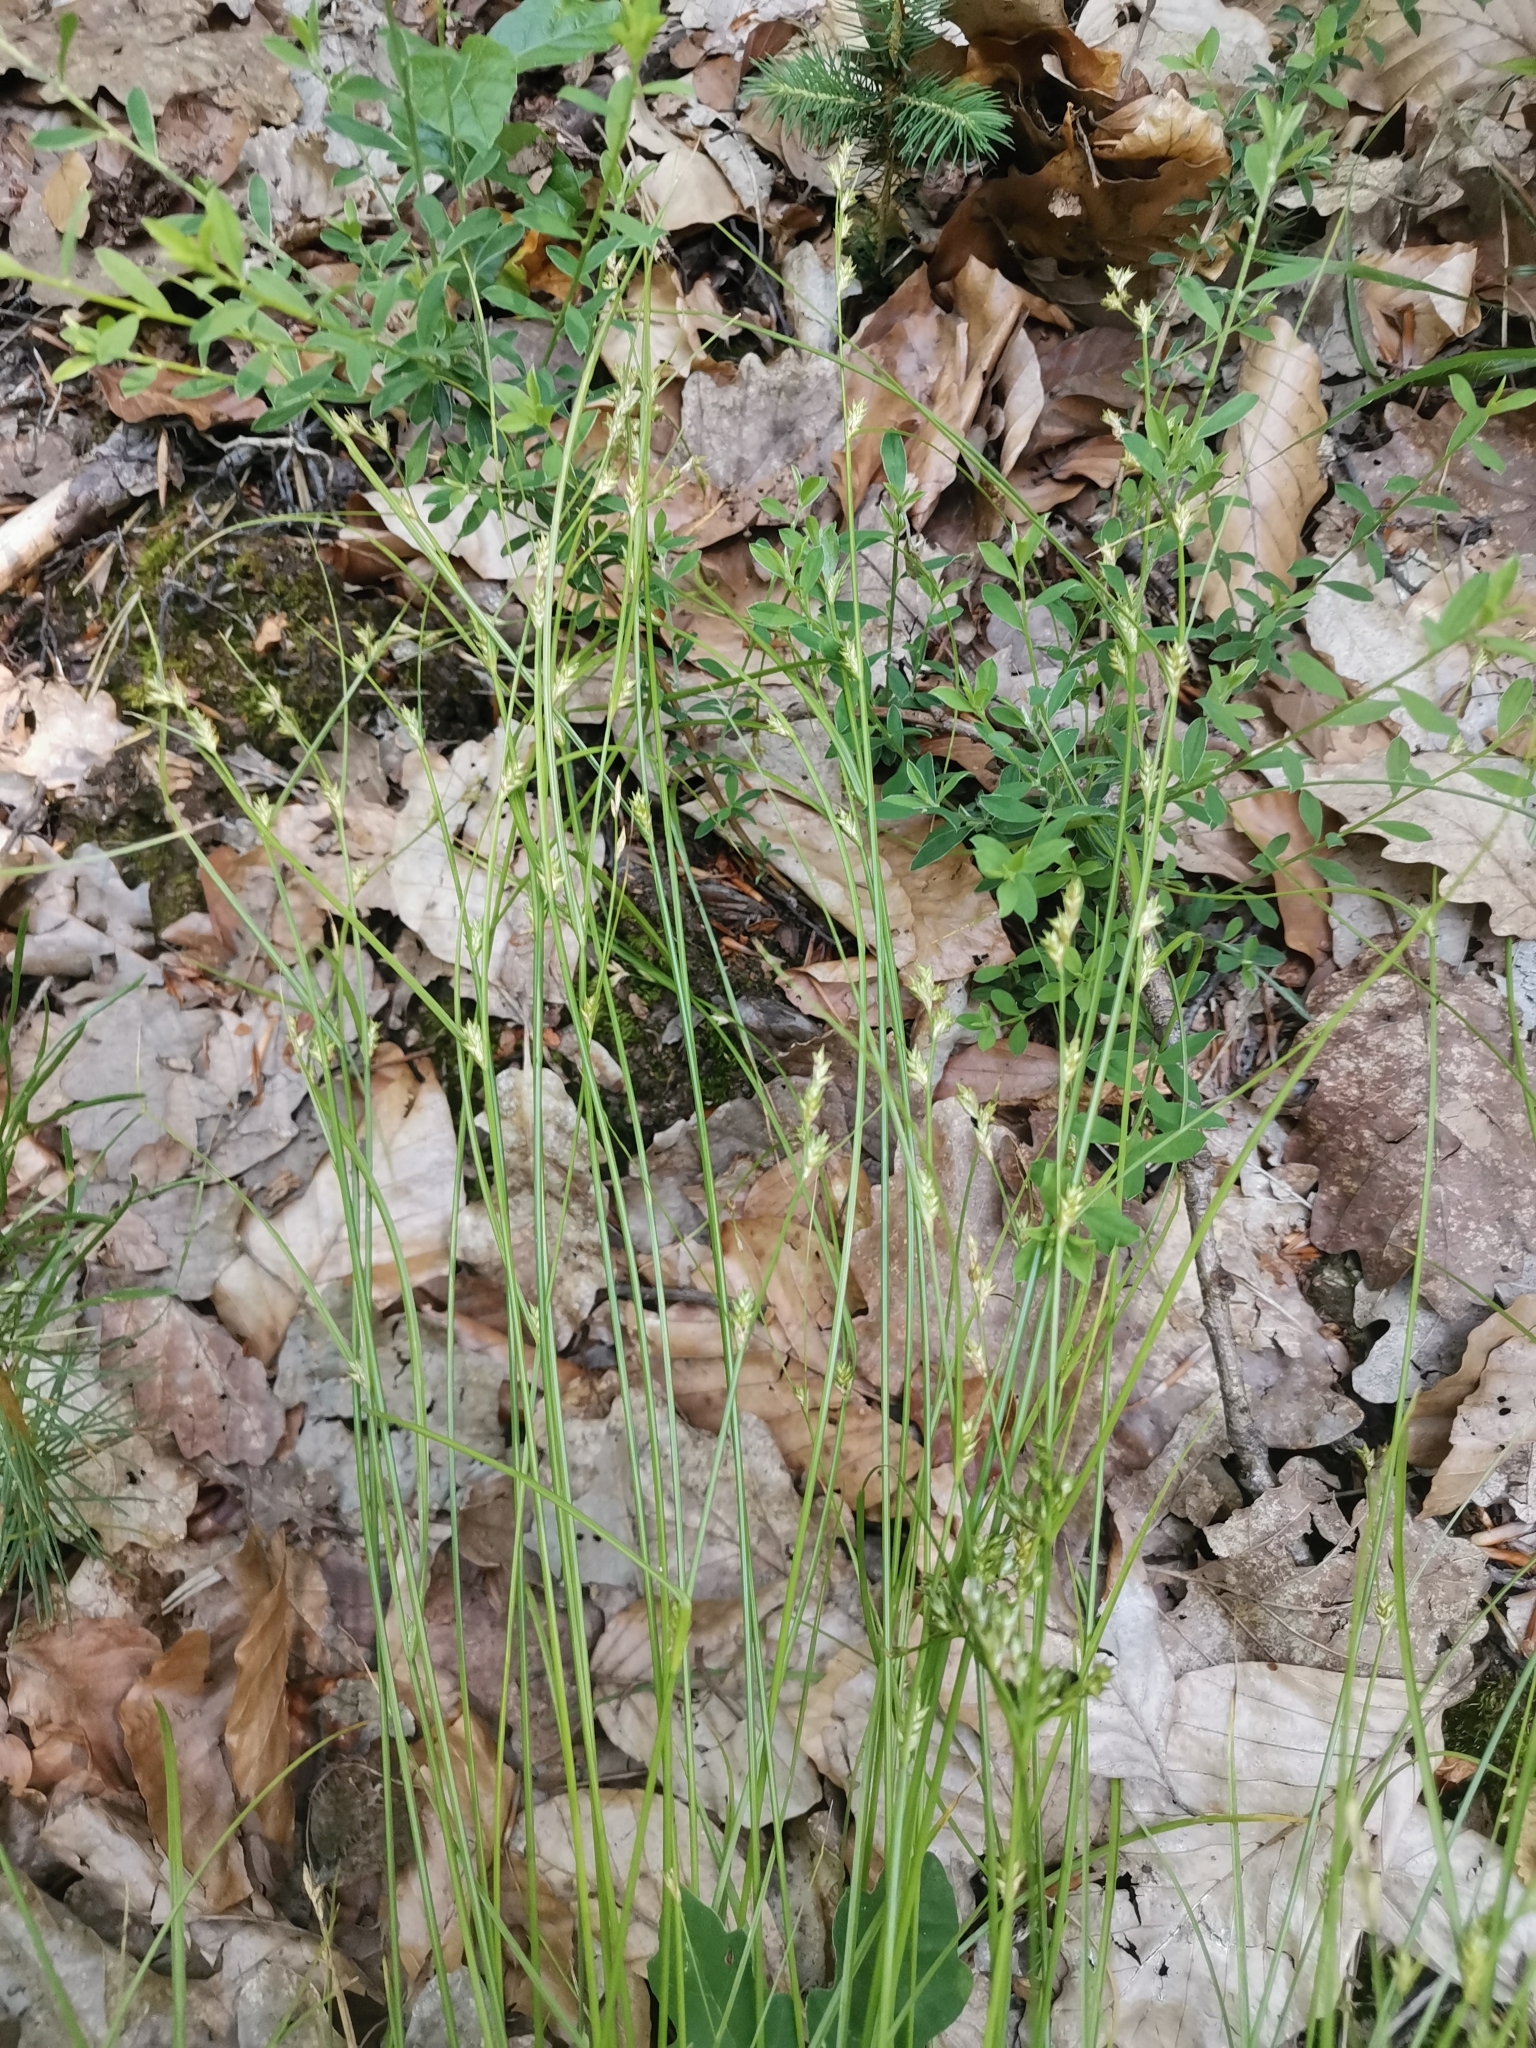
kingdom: Plantae
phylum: Tracheophyta
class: Liliopsida
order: Poales
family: Cyperaceae
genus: Carex
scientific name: Carex remota
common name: Remote sedge
